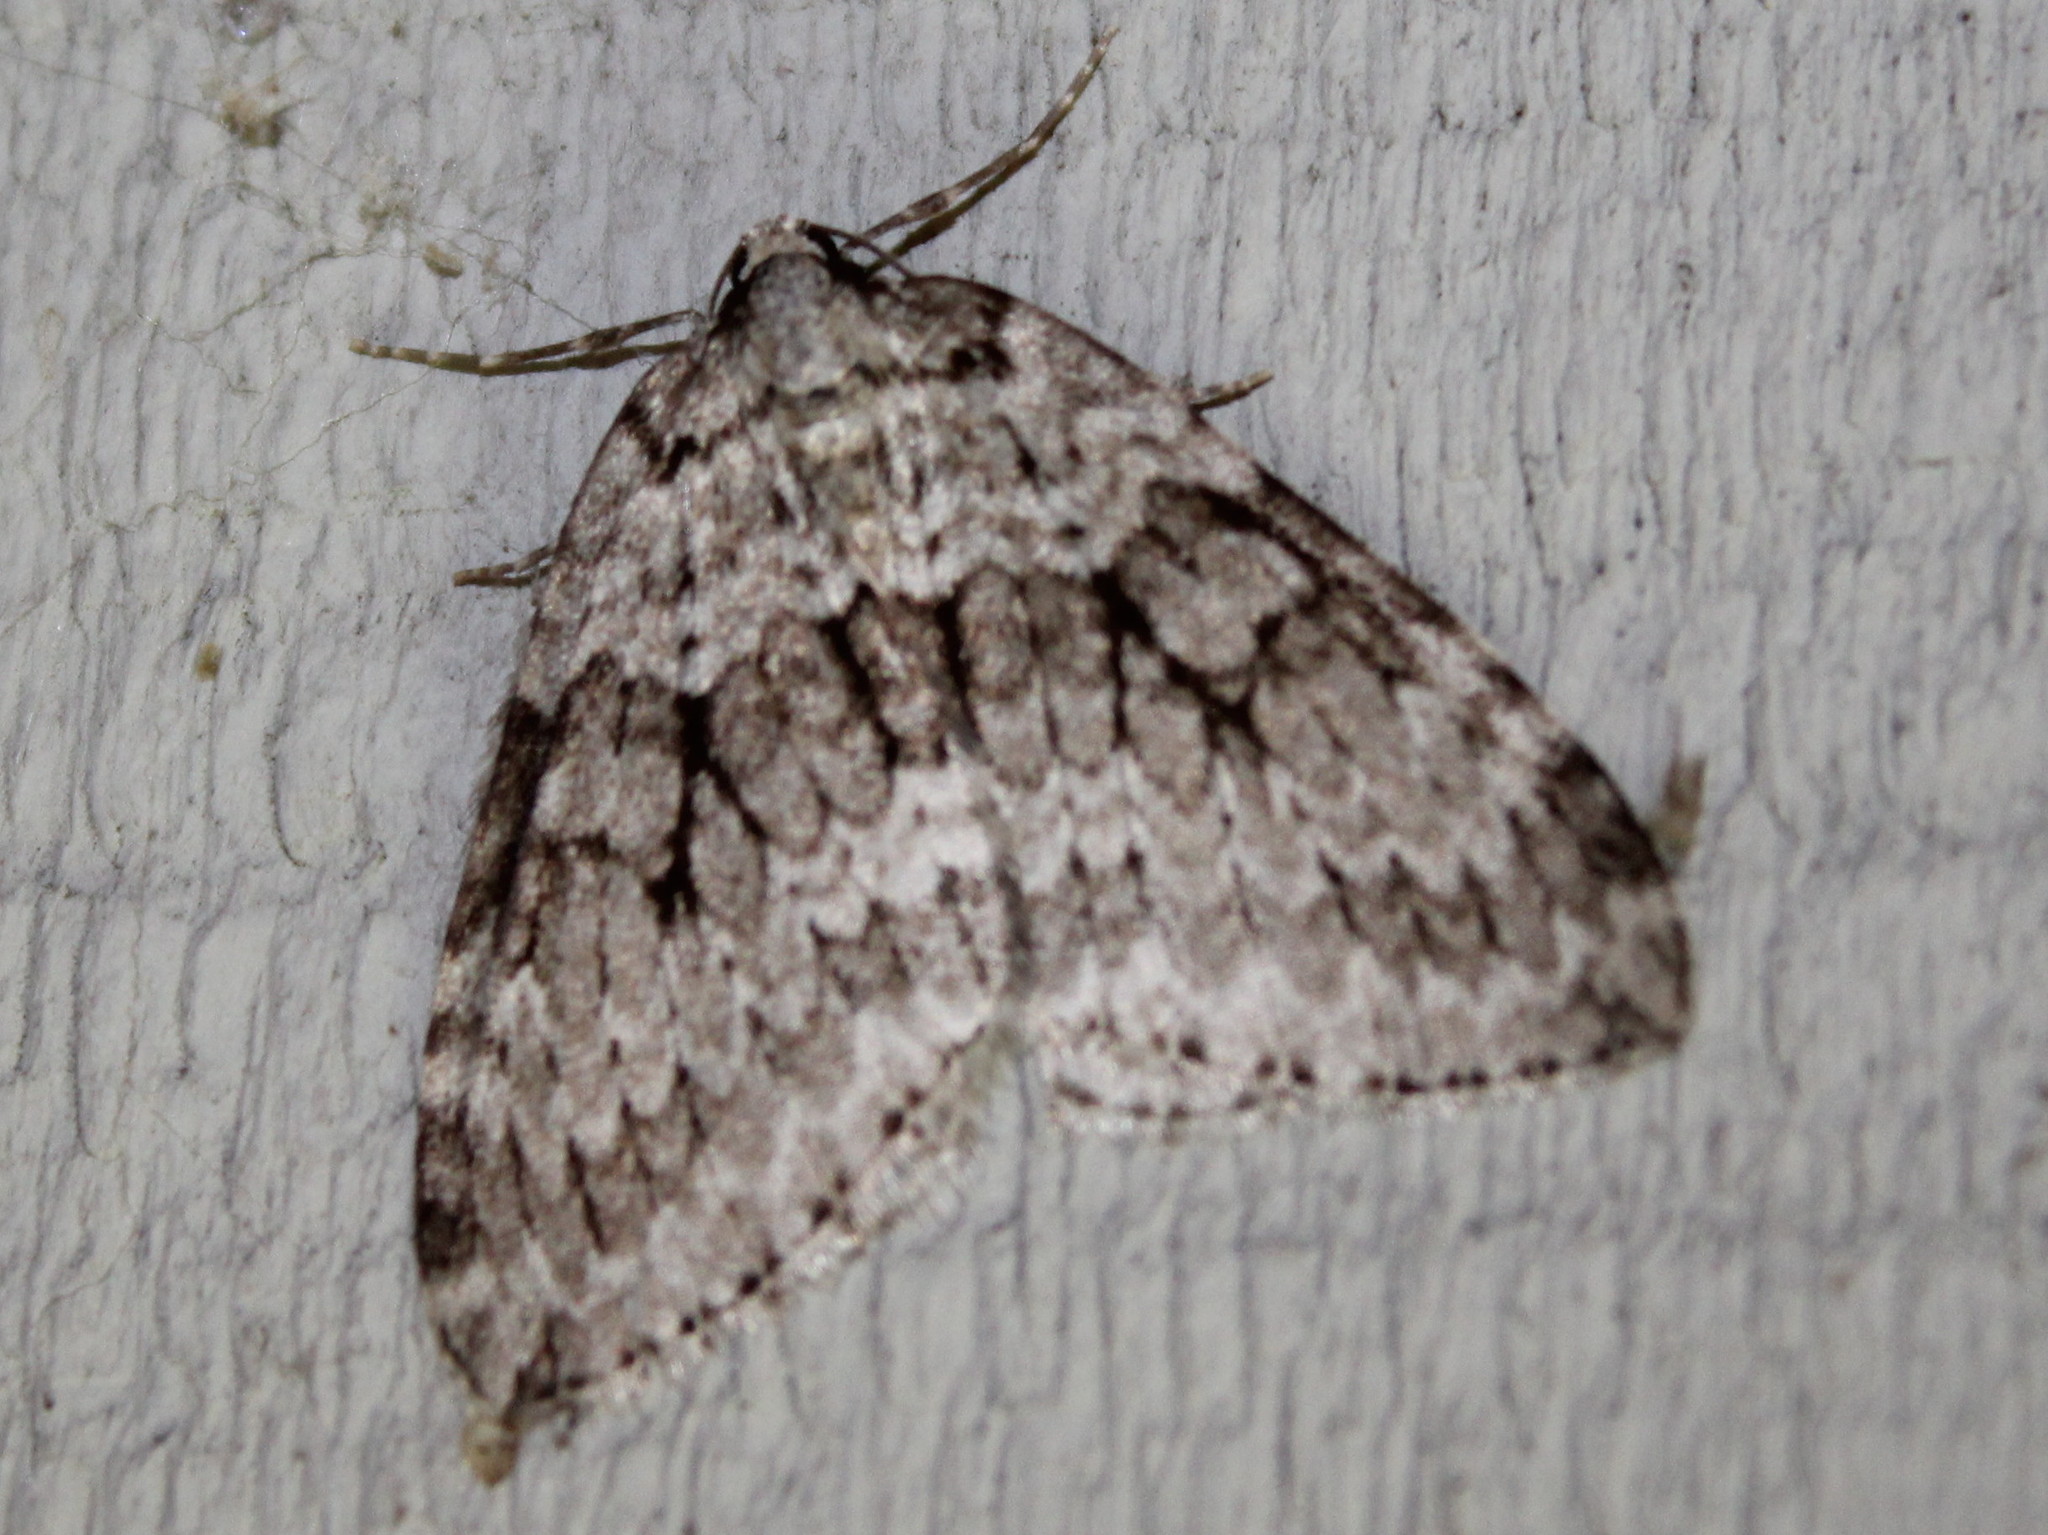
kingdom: Animalia
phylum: Arthropoda
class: Insecta
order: Lepidoptera
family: Geometridae
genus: Epirrita
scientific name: Epirrita autumnata
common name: Autumnal moth
